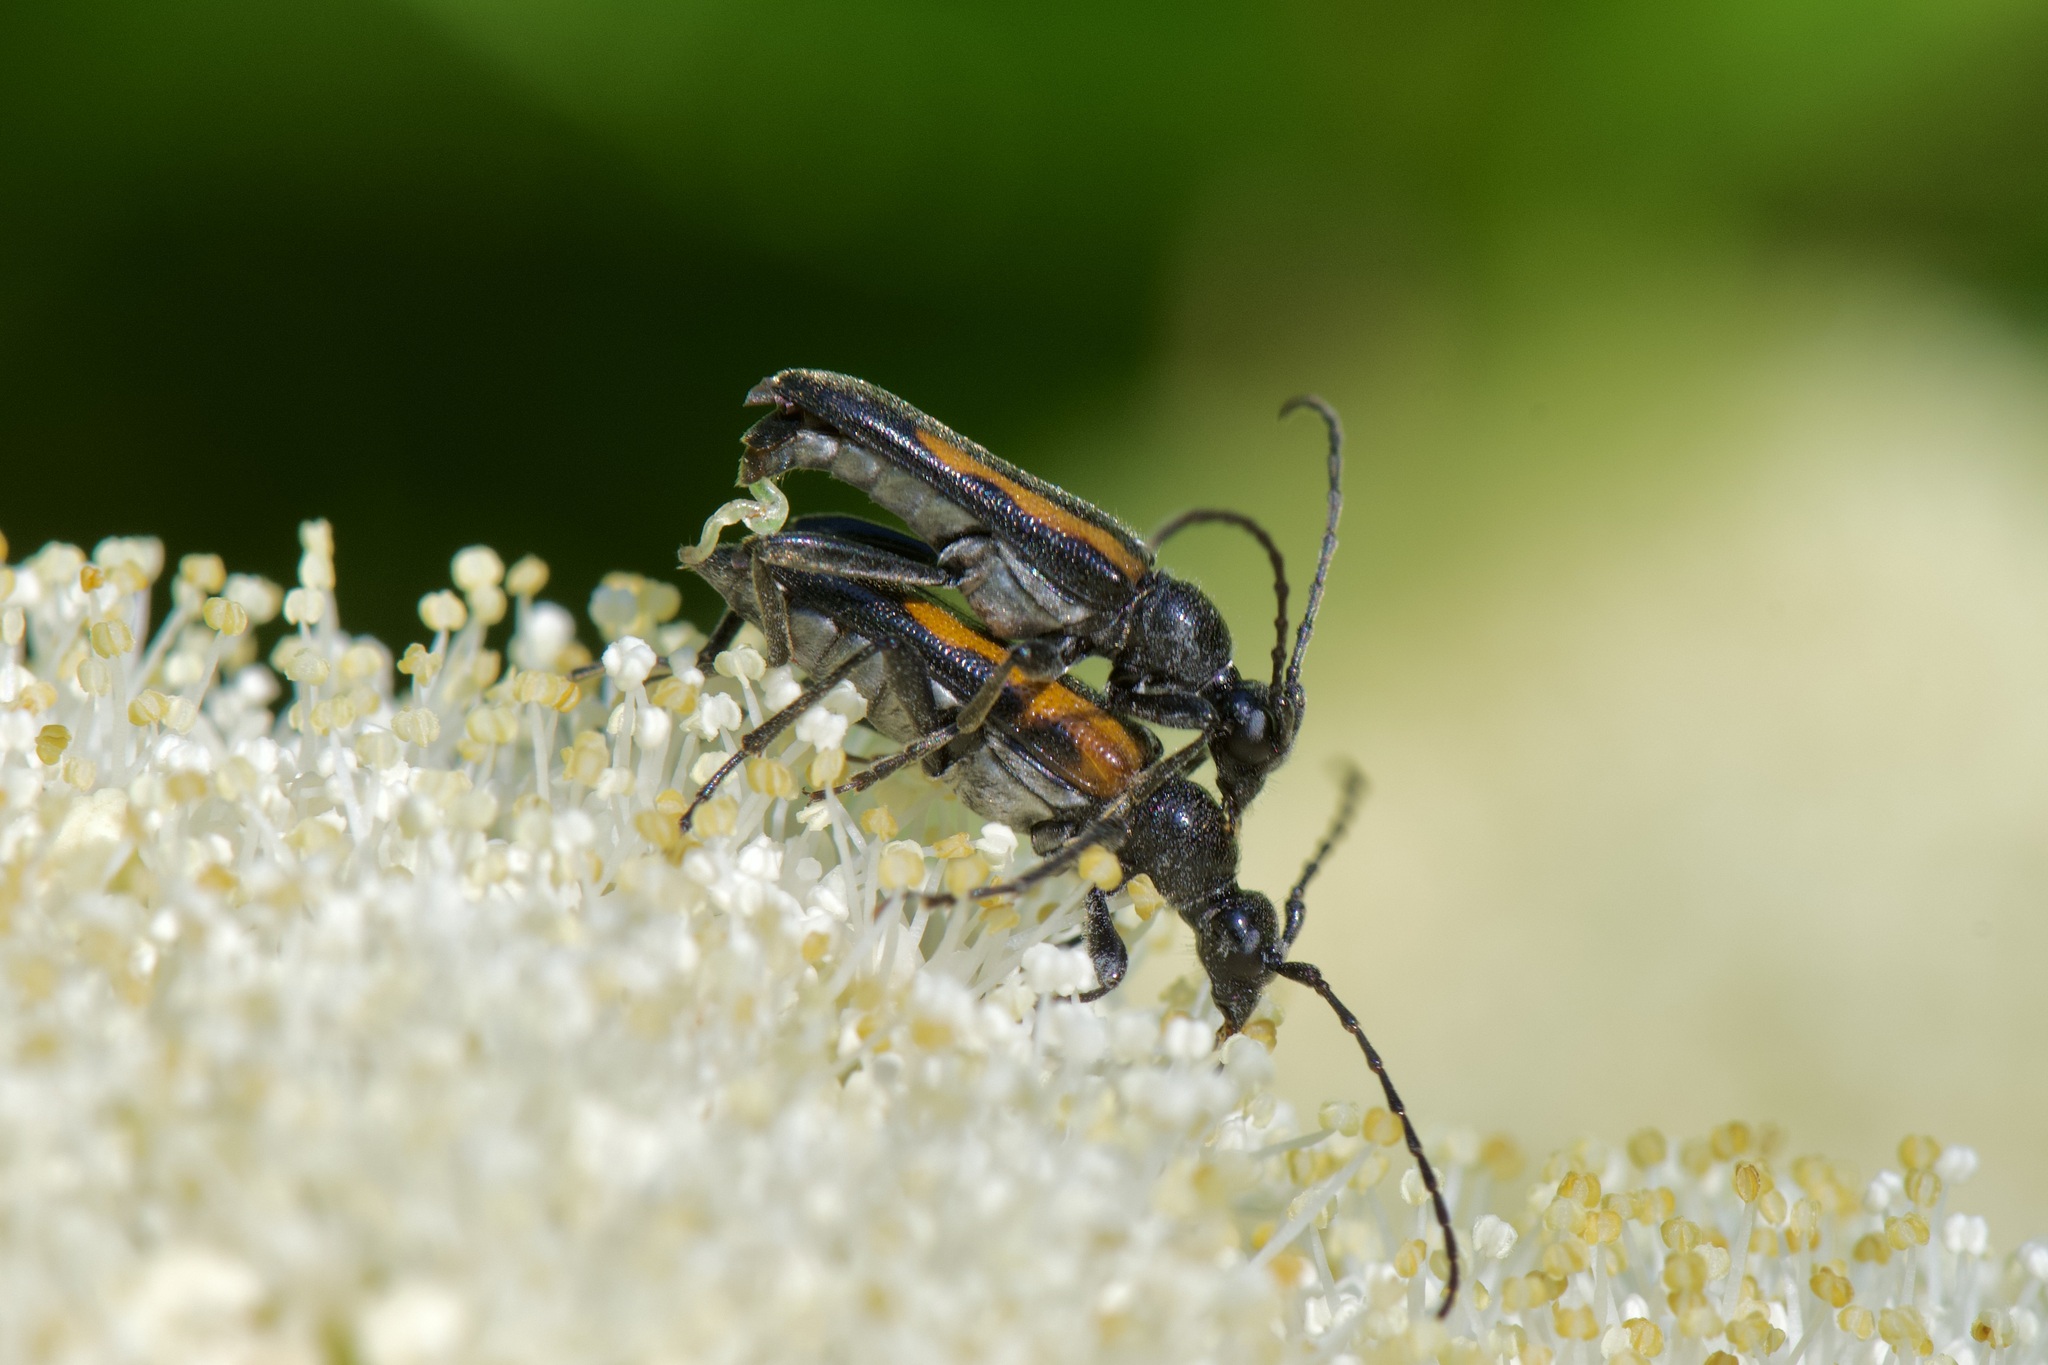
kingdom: Animalia
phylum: Arthropoda
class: Insecta
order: Coleoptera
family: Cerambycidae
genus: Strangalepta
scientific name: Strangalepta abbreviata
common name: Strangalepta flower longhorn beetle
